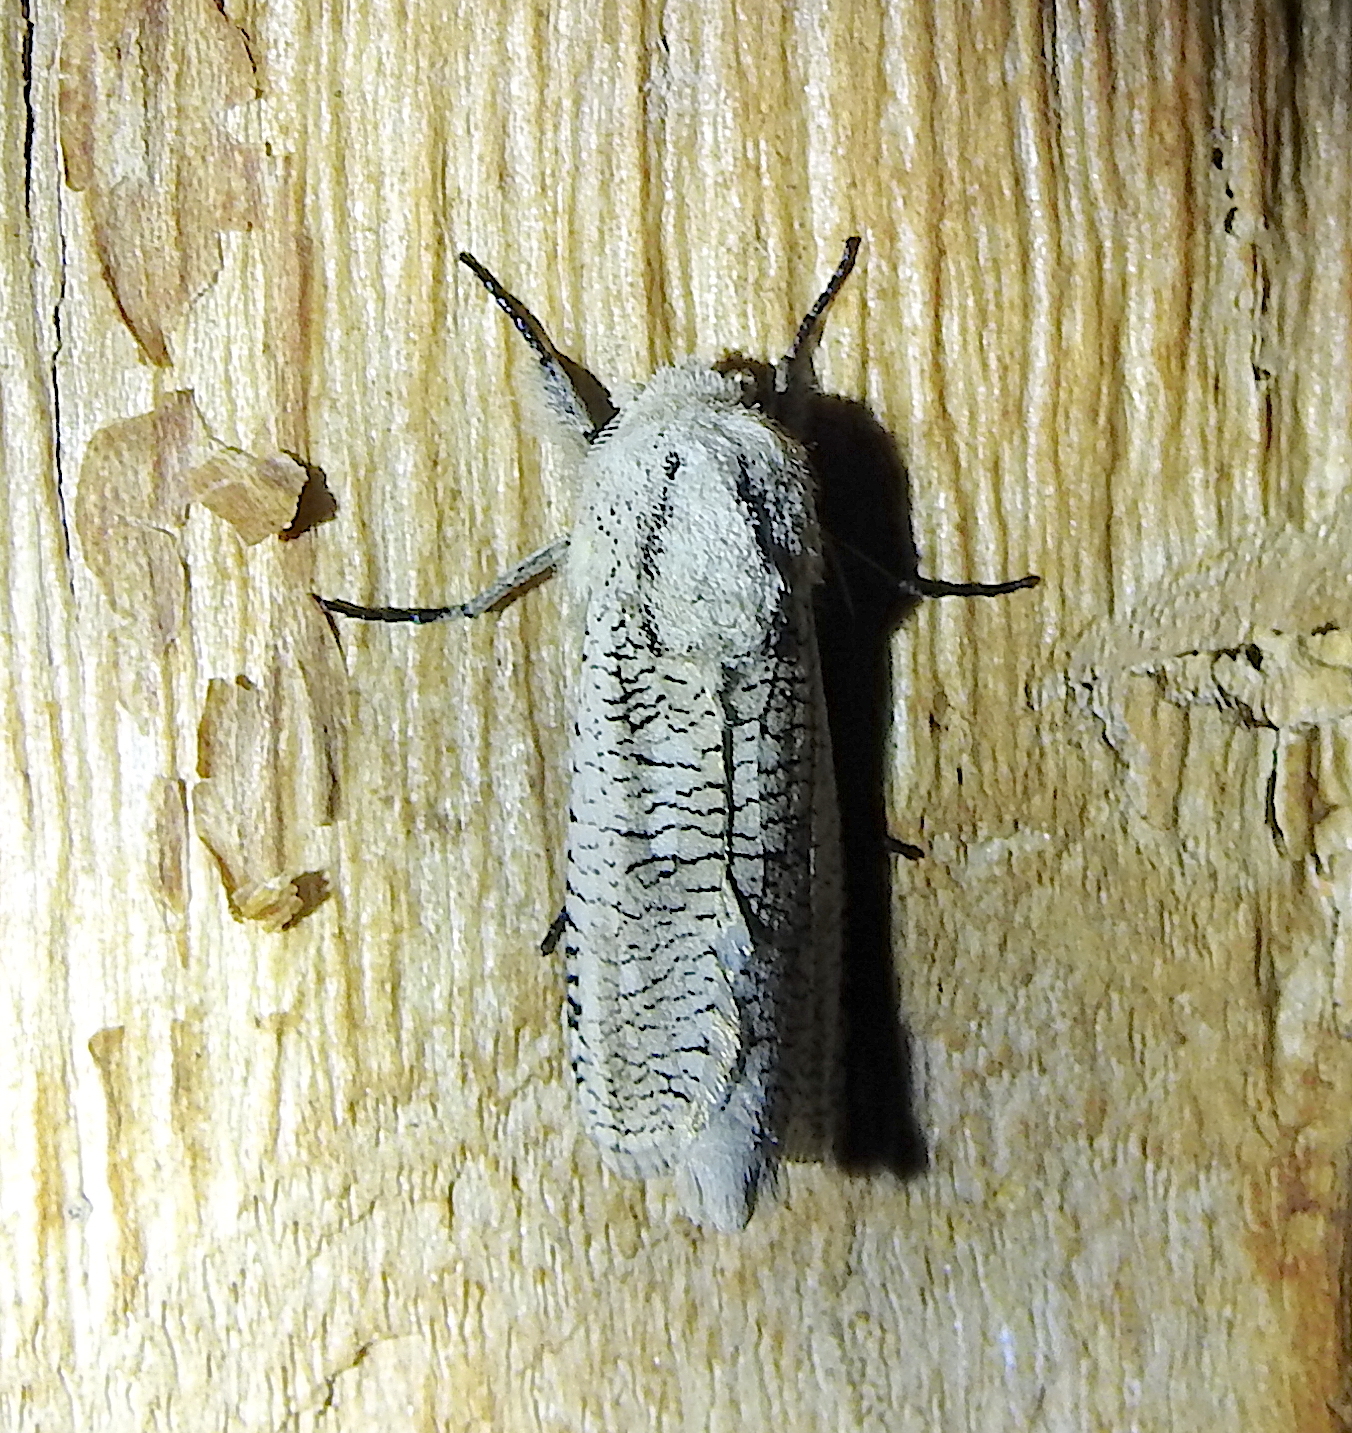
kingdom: Animalia
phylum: Arthropoda
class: Insecta
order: Lepidoptera
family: Cossidae
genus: Azygophleps
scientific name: Azygophleps pusilla
